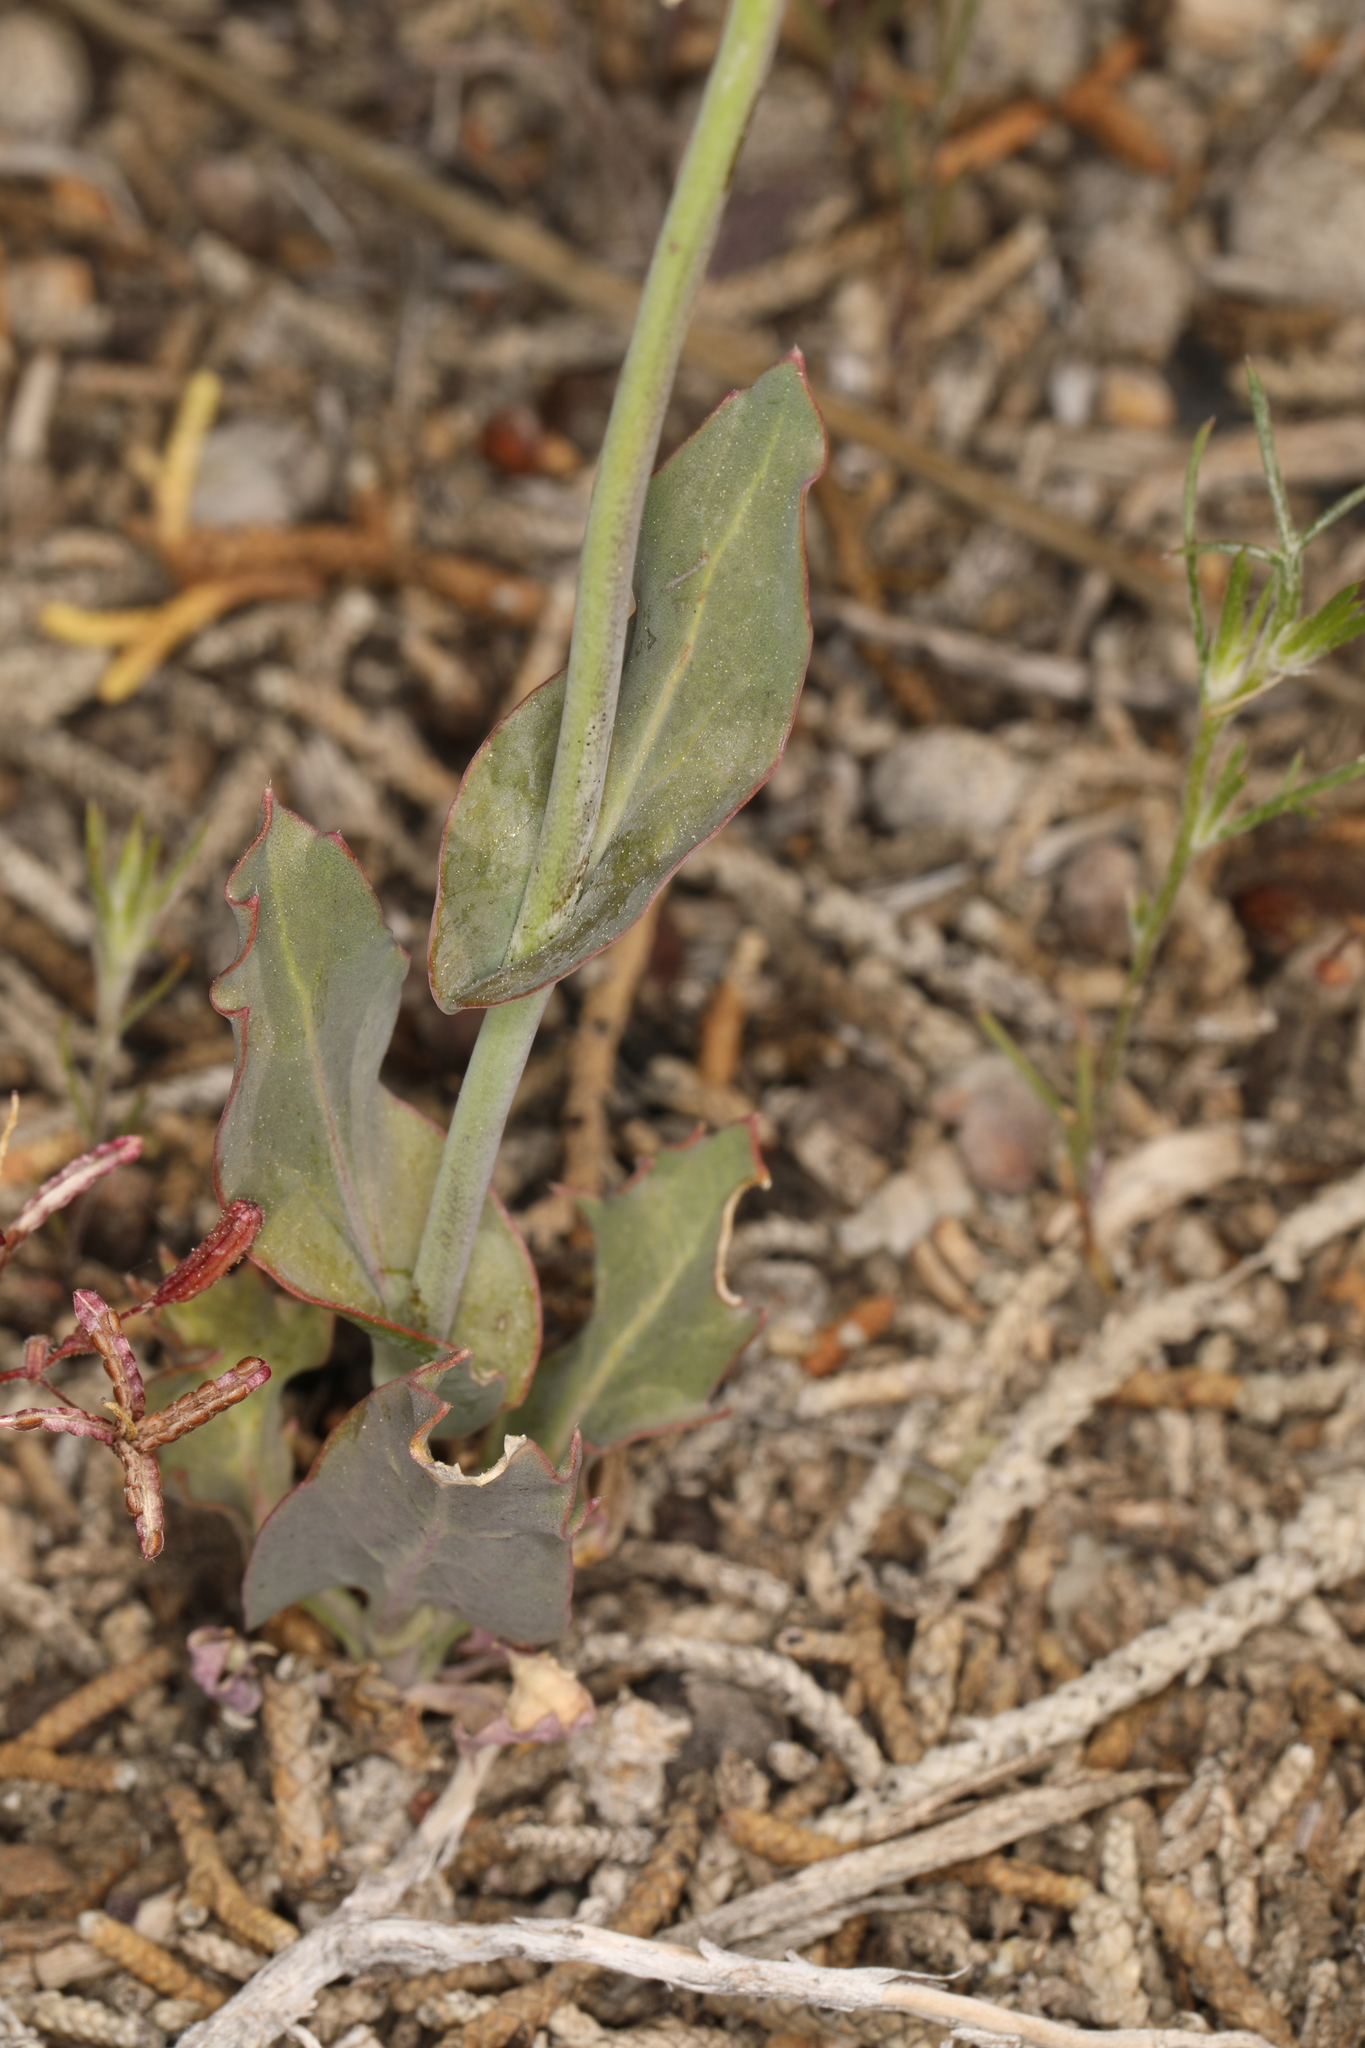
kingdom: Plantae
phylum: Tracheophyta
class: Magnoliopsida
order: Brassicales
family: Brassicaceae
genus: Streptanthus
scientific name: Streptanthus cordatus
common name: Heart-leaf jewel-flower
